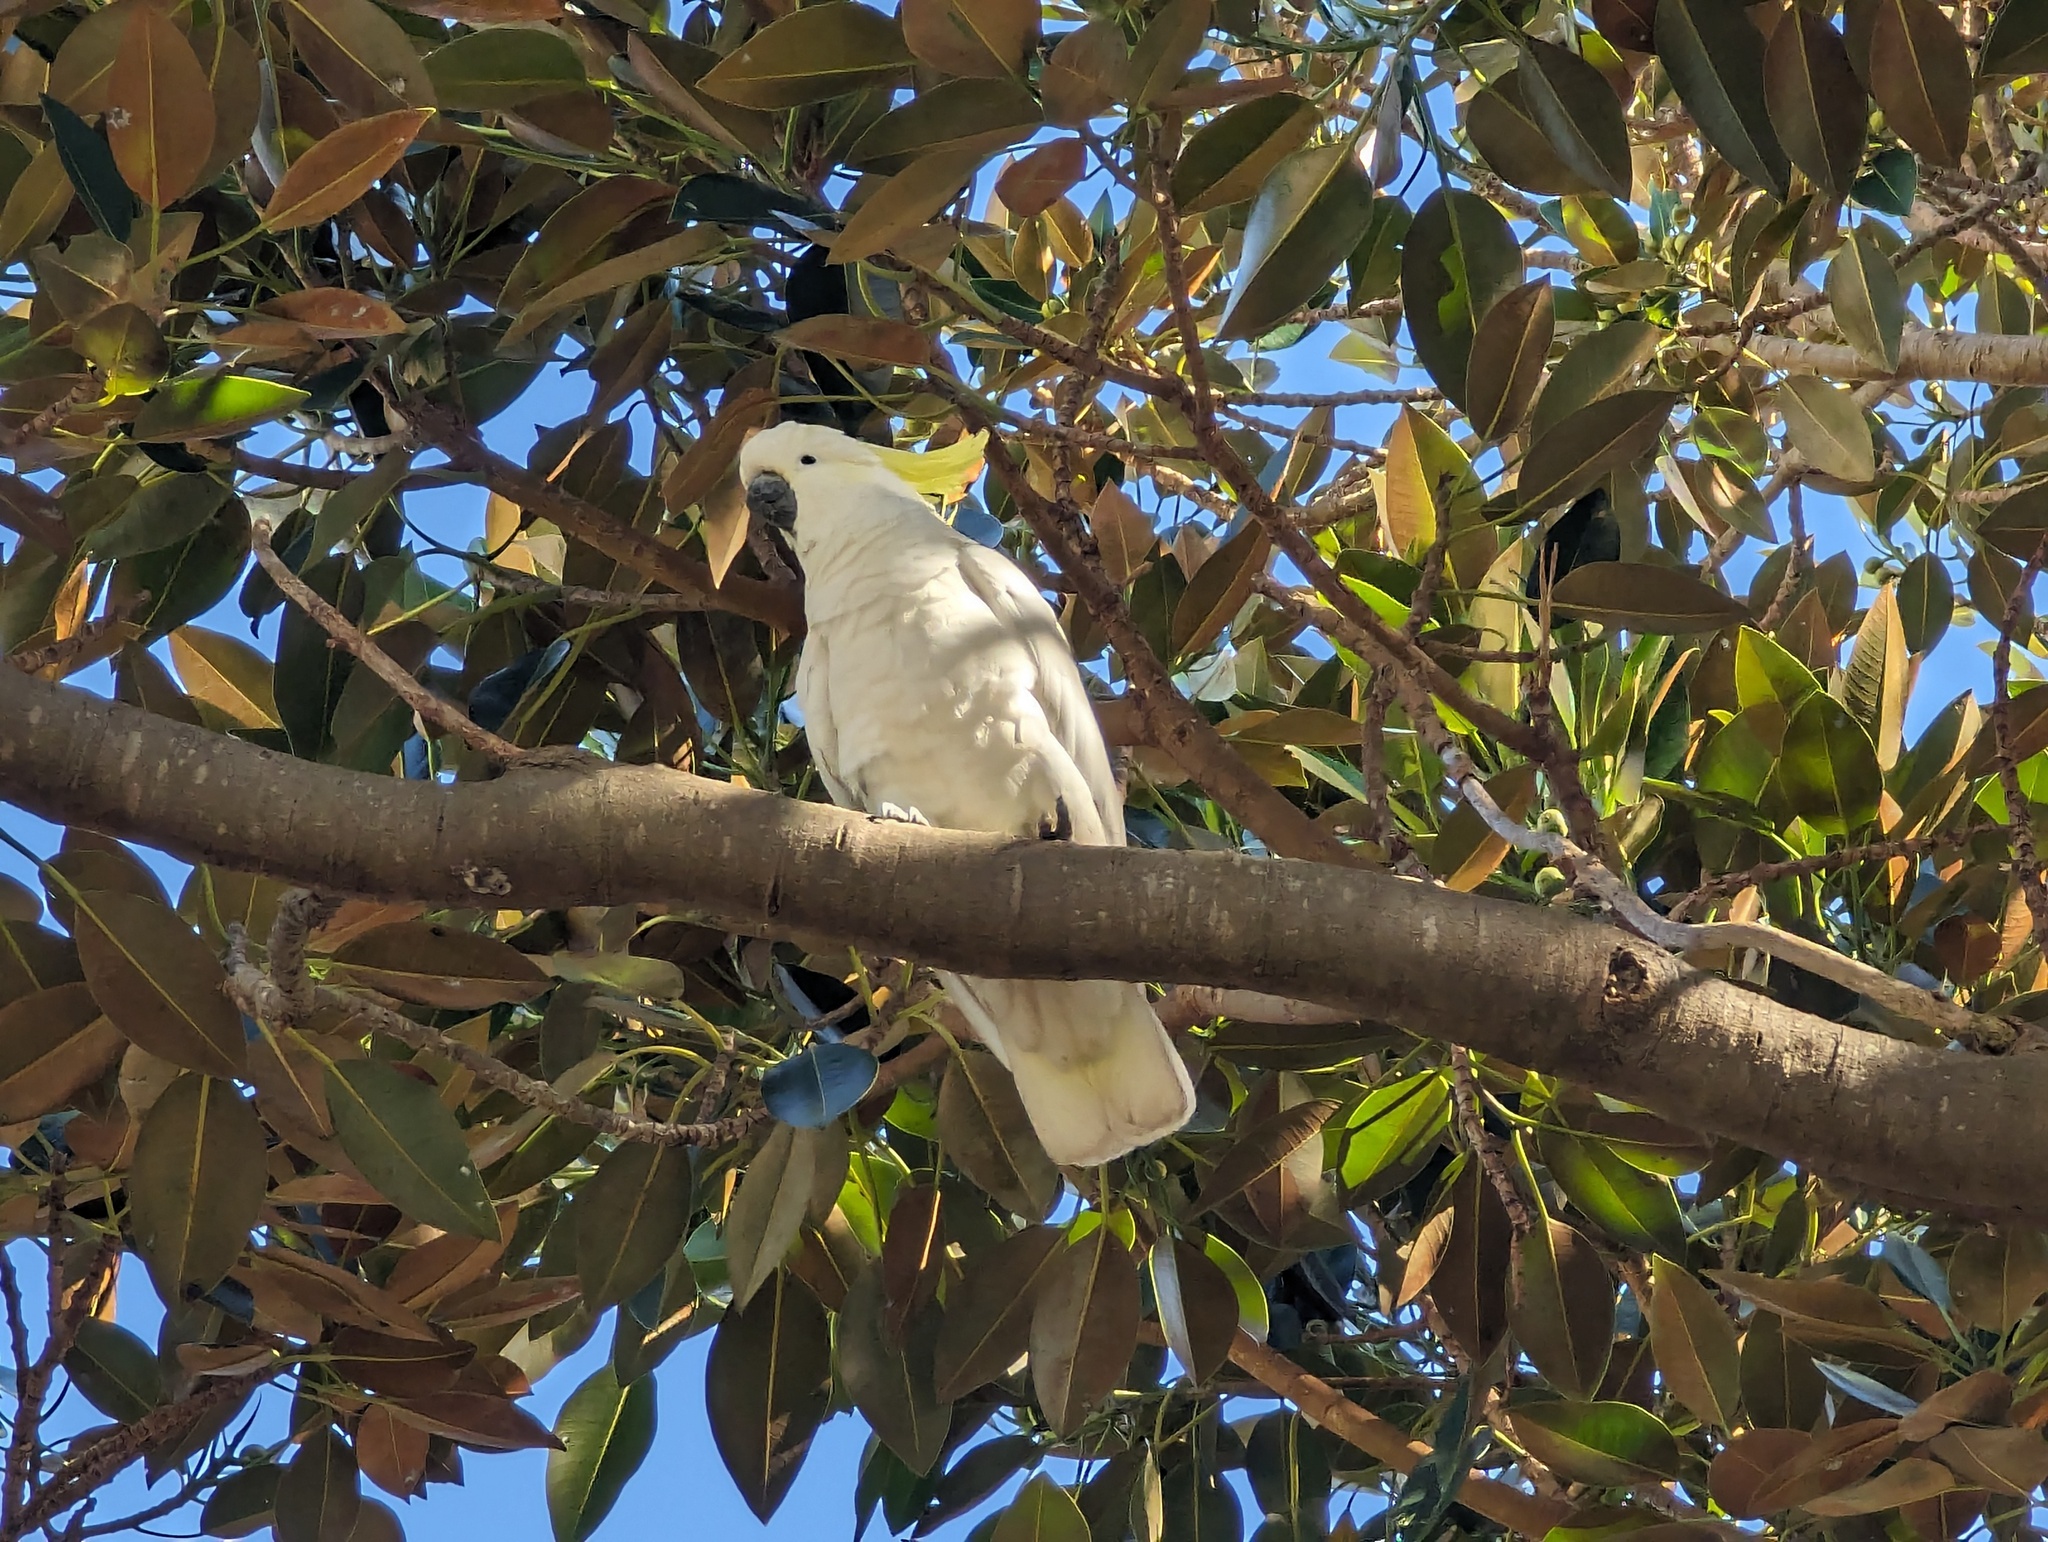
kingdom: Animalia
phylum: Chordata
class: Aves
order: Psittaciformes
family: Psittacidae
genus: Cacatua
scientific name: Cacatua galerita
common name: Sulphur-crested cockatoo
